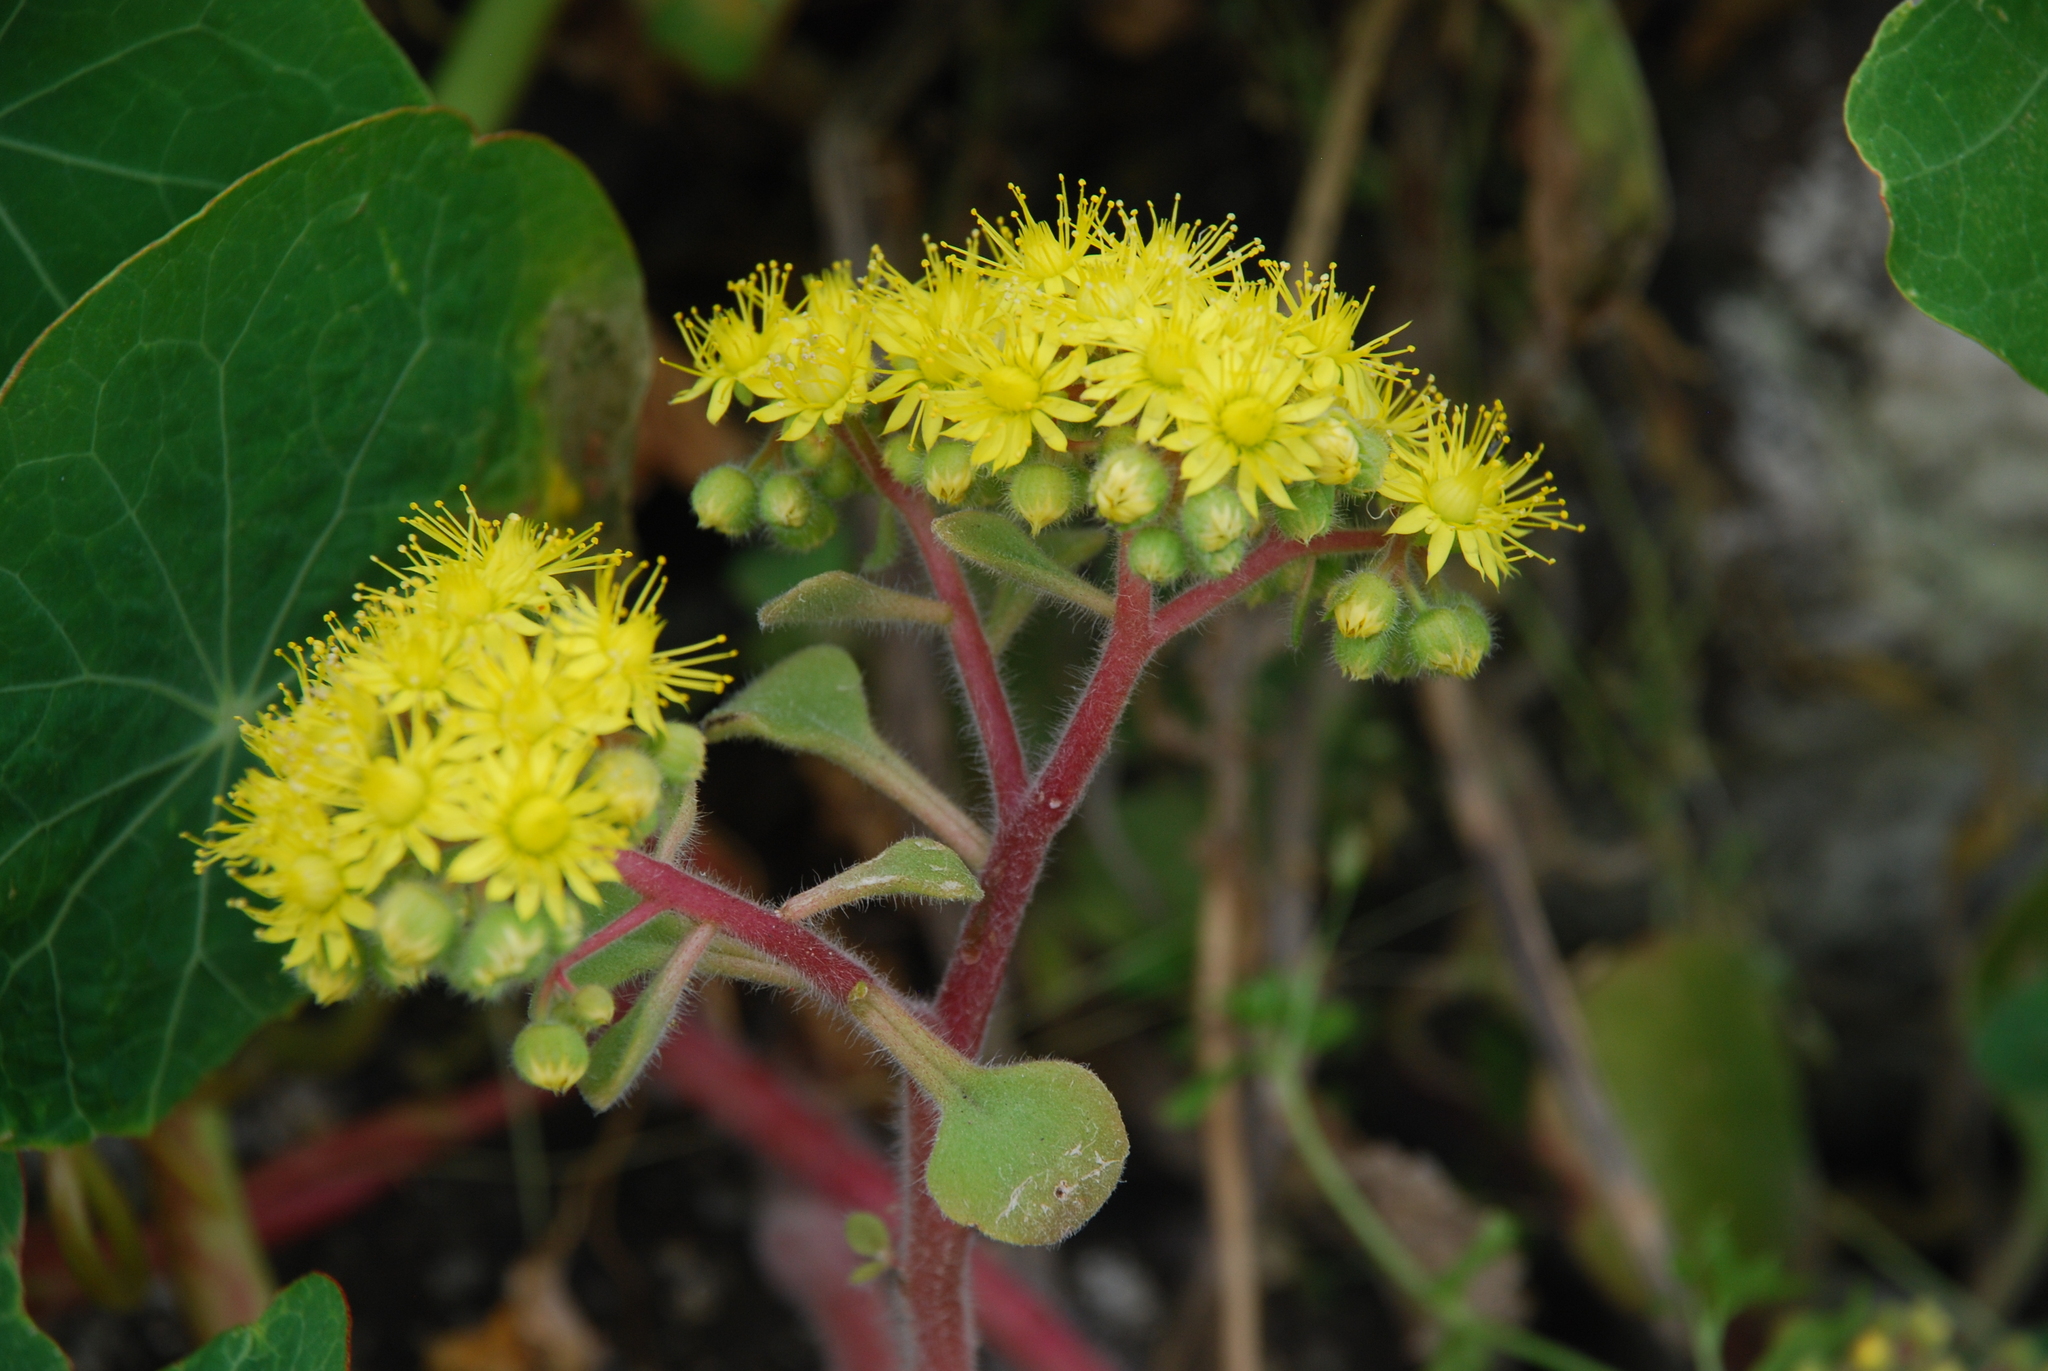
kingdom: Plantae
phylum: Tracheophyta
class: Magnoliopsida
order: Saxifragales
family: Crassulaceae
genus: Aichryson
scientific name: Aichryson laxum
